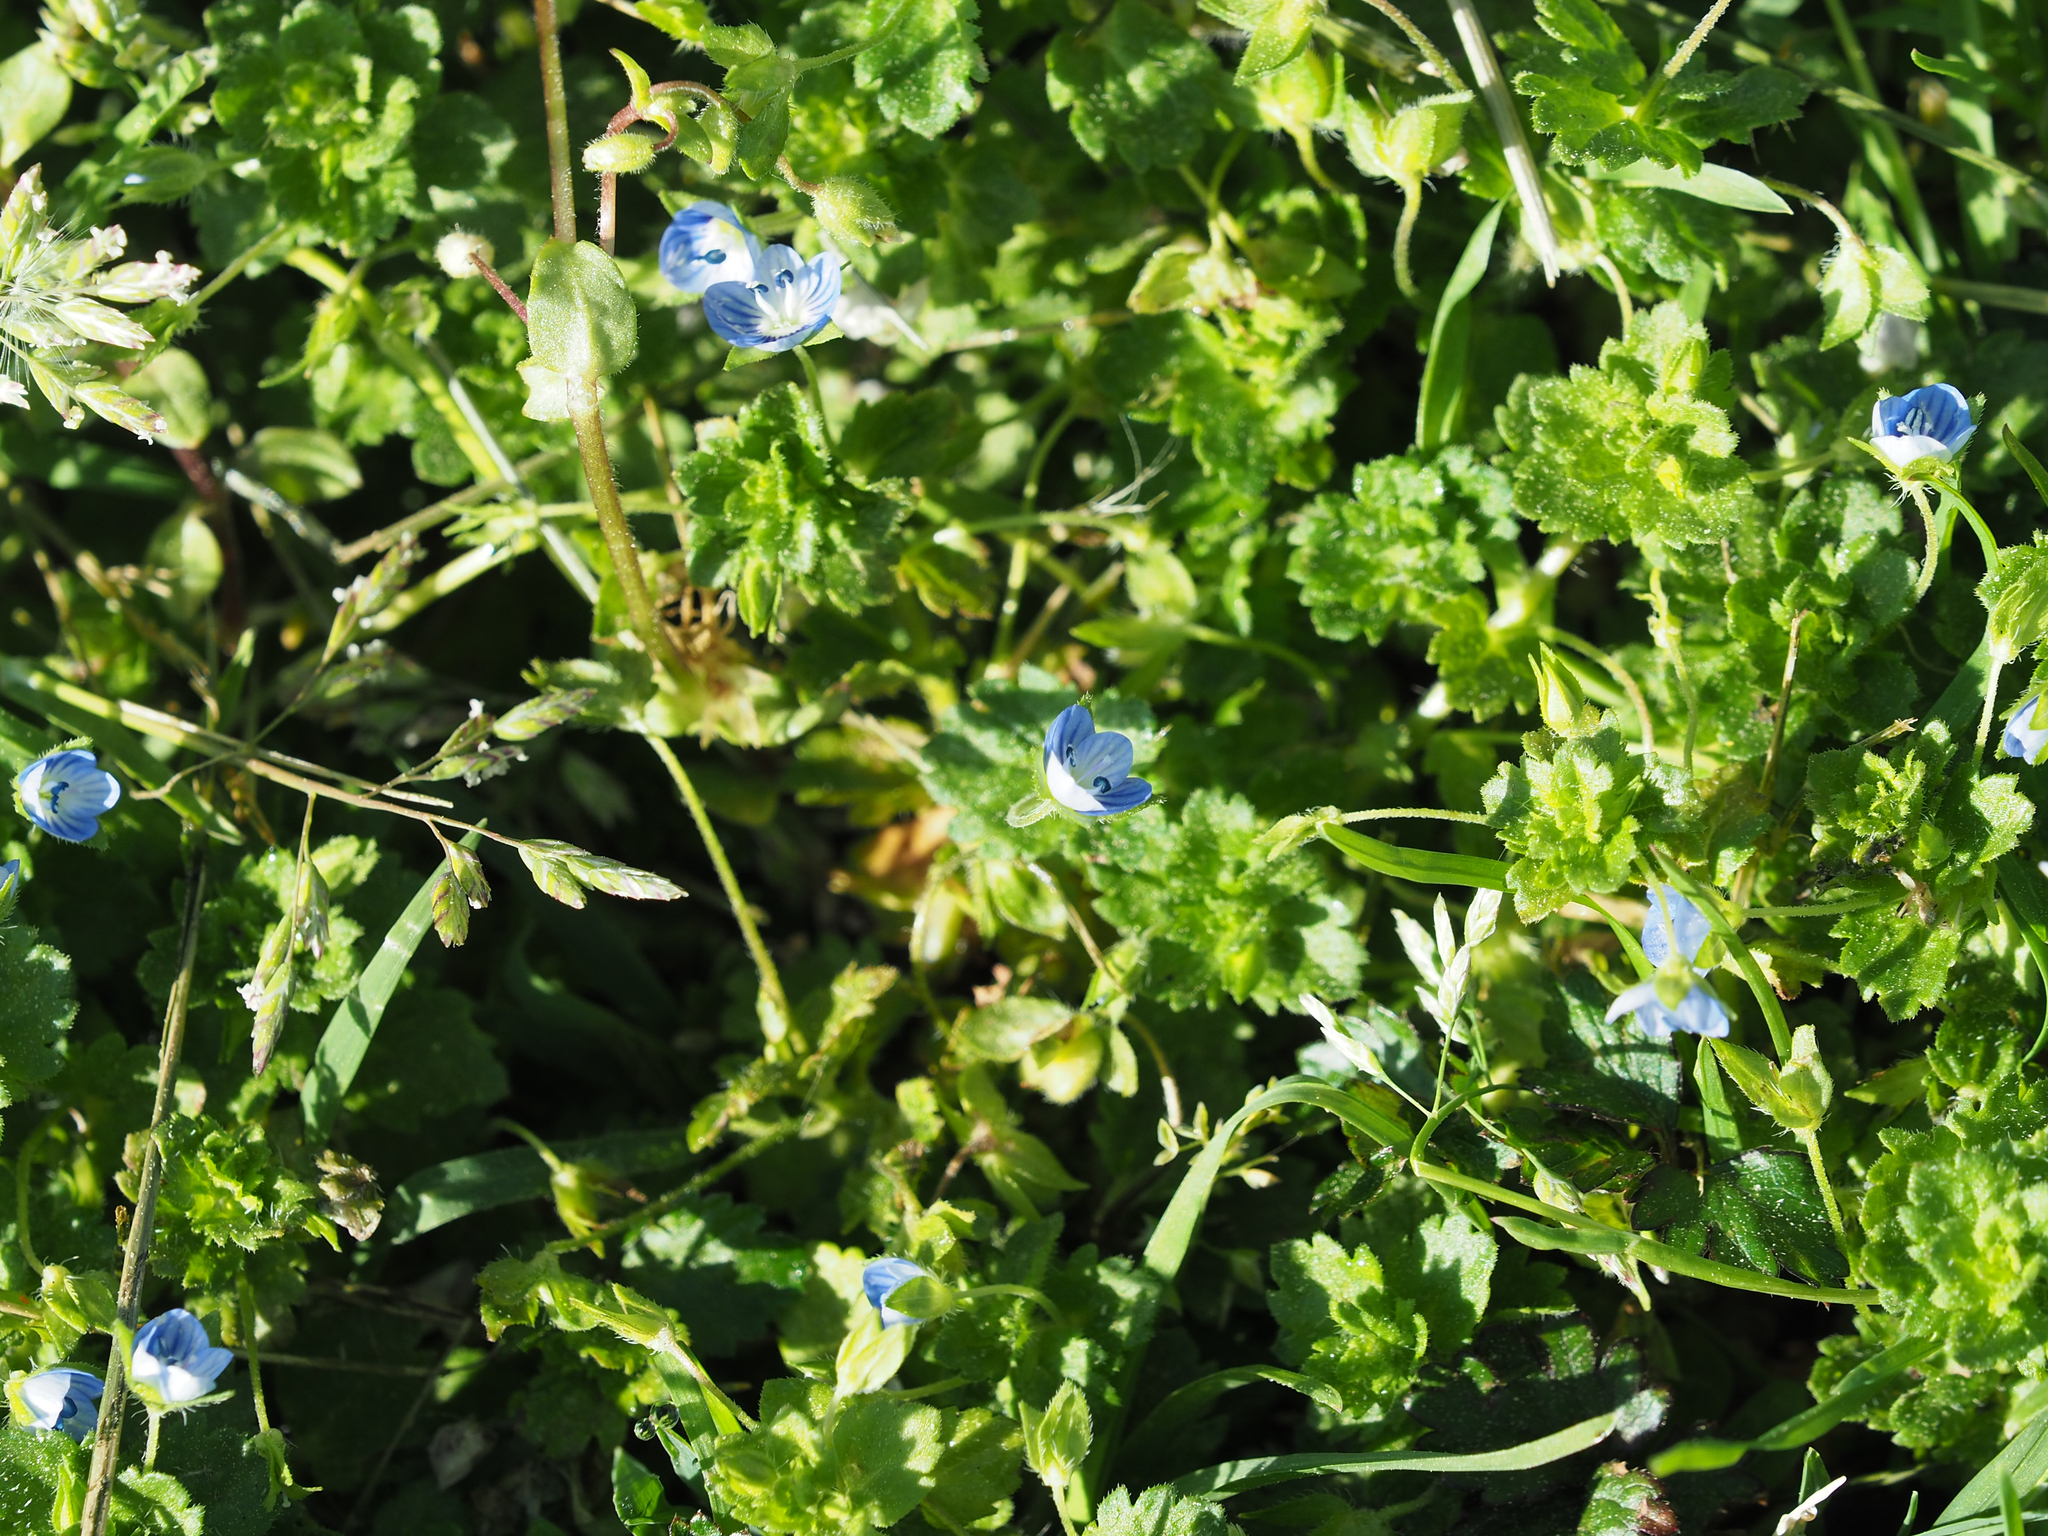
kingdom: Plantae
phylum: Tracheophyta
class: Magnoliopsida
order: Lamiales
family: Plantaginaceae
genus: Veronica
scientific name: Veronica persica
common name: Common field-speedwell
